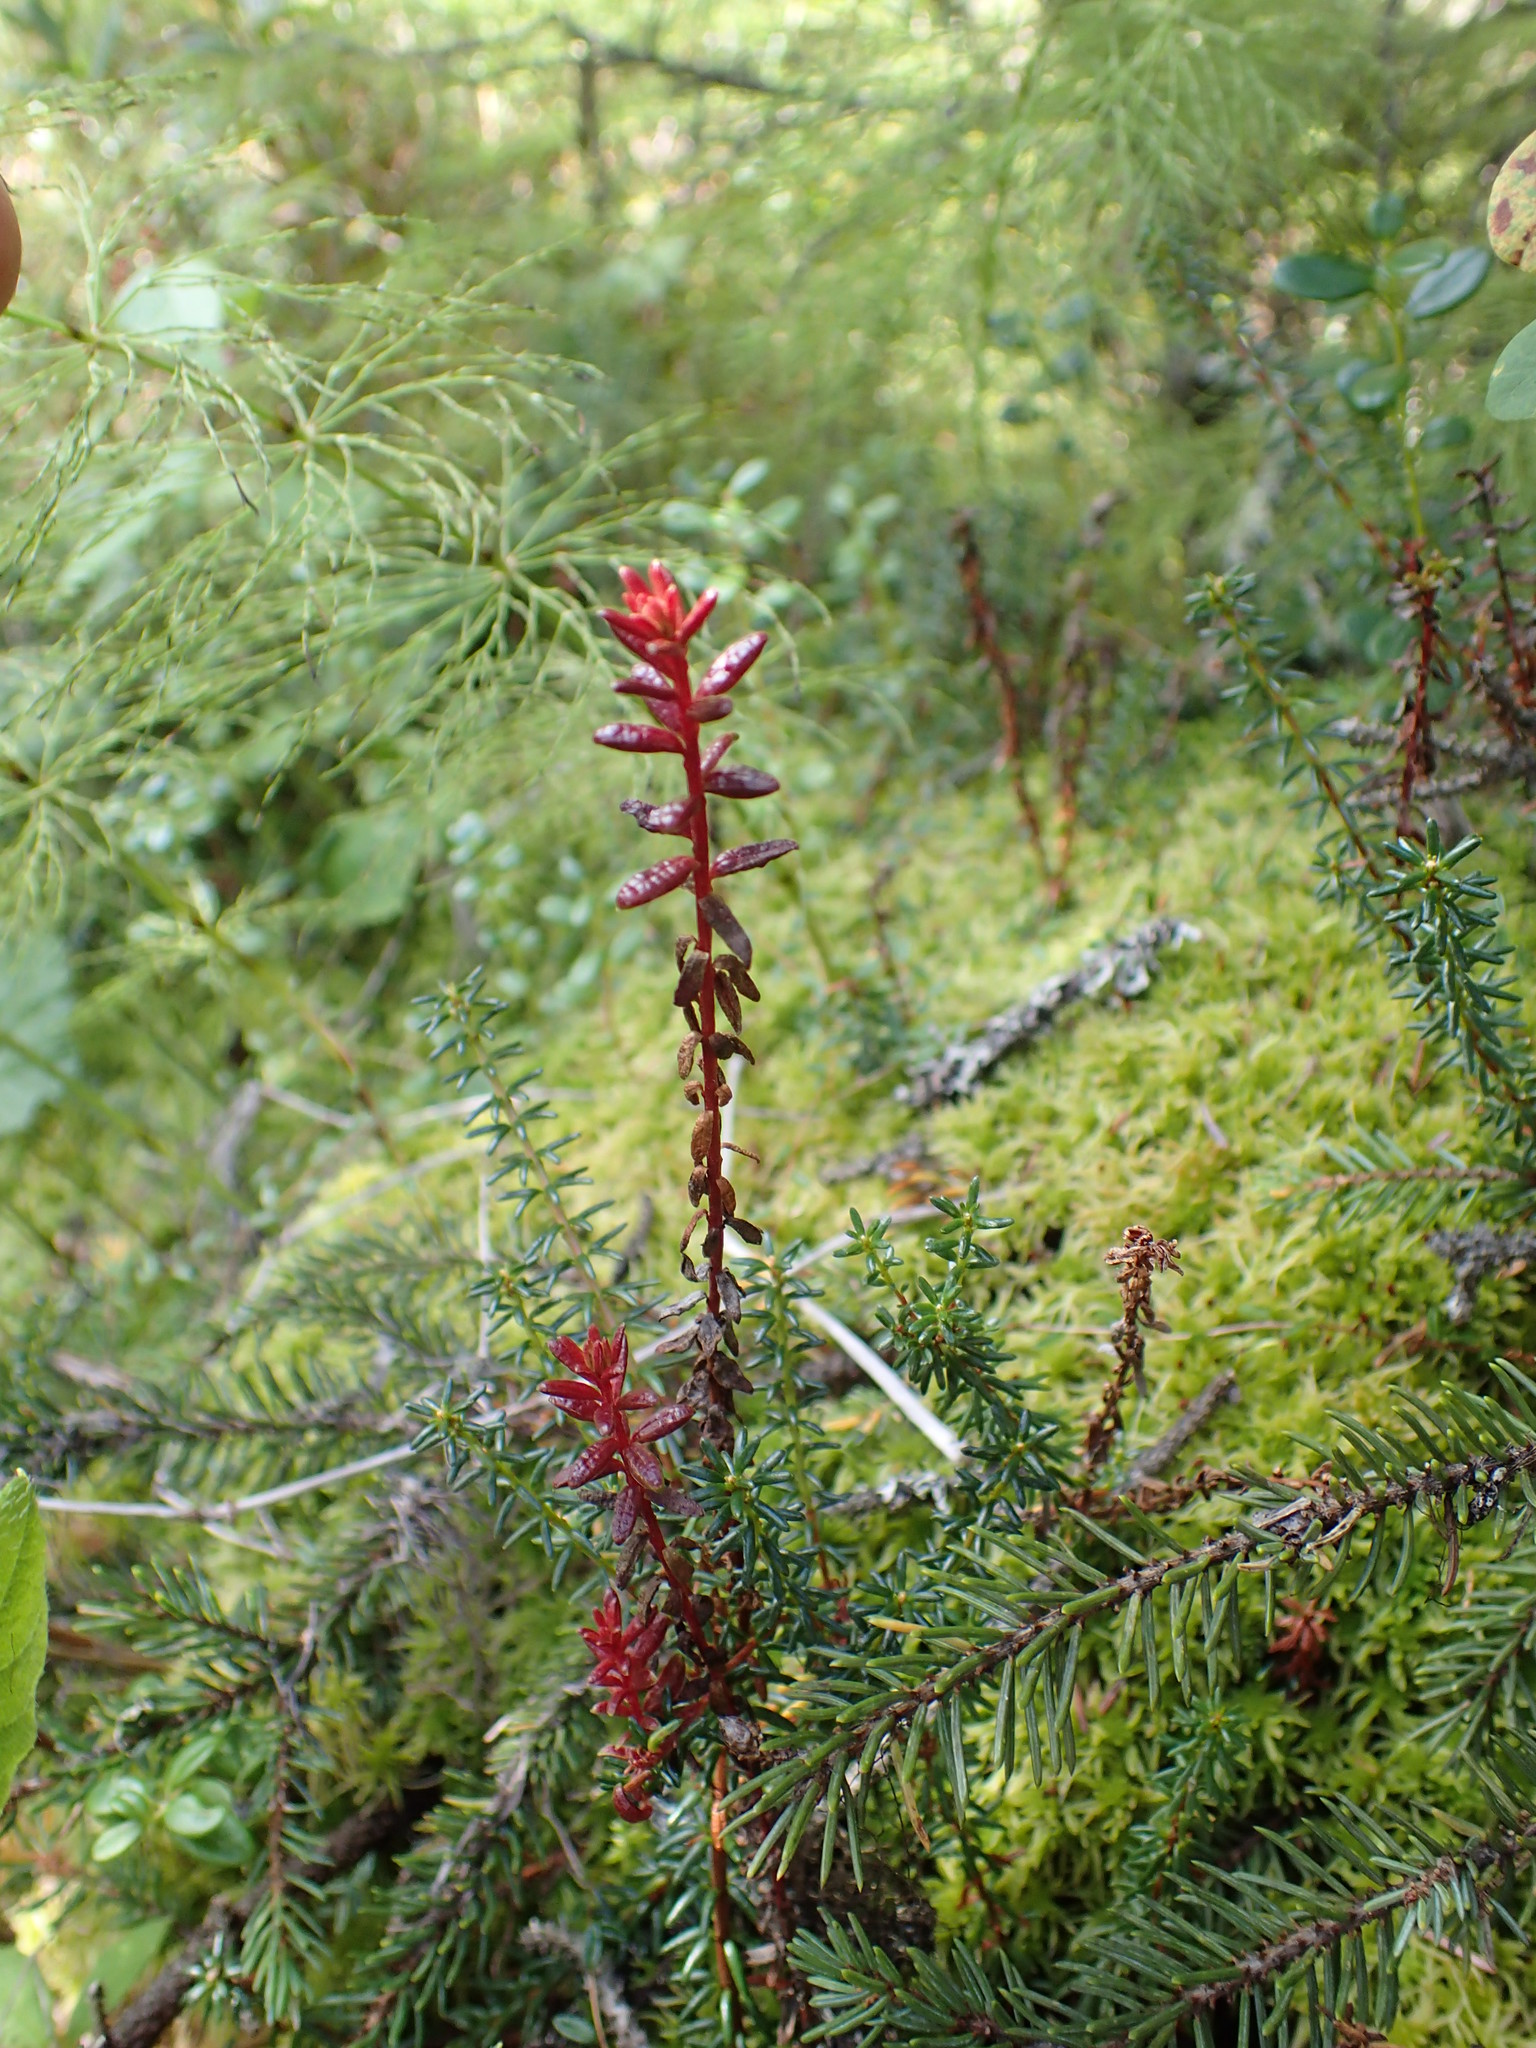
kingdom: Fungi
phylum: Basidiomycota
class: Exobasidiomycetes
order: Exobasidiales
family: Exobasidiaceae
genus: Exobasidium
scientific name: Exobasidium empetri
